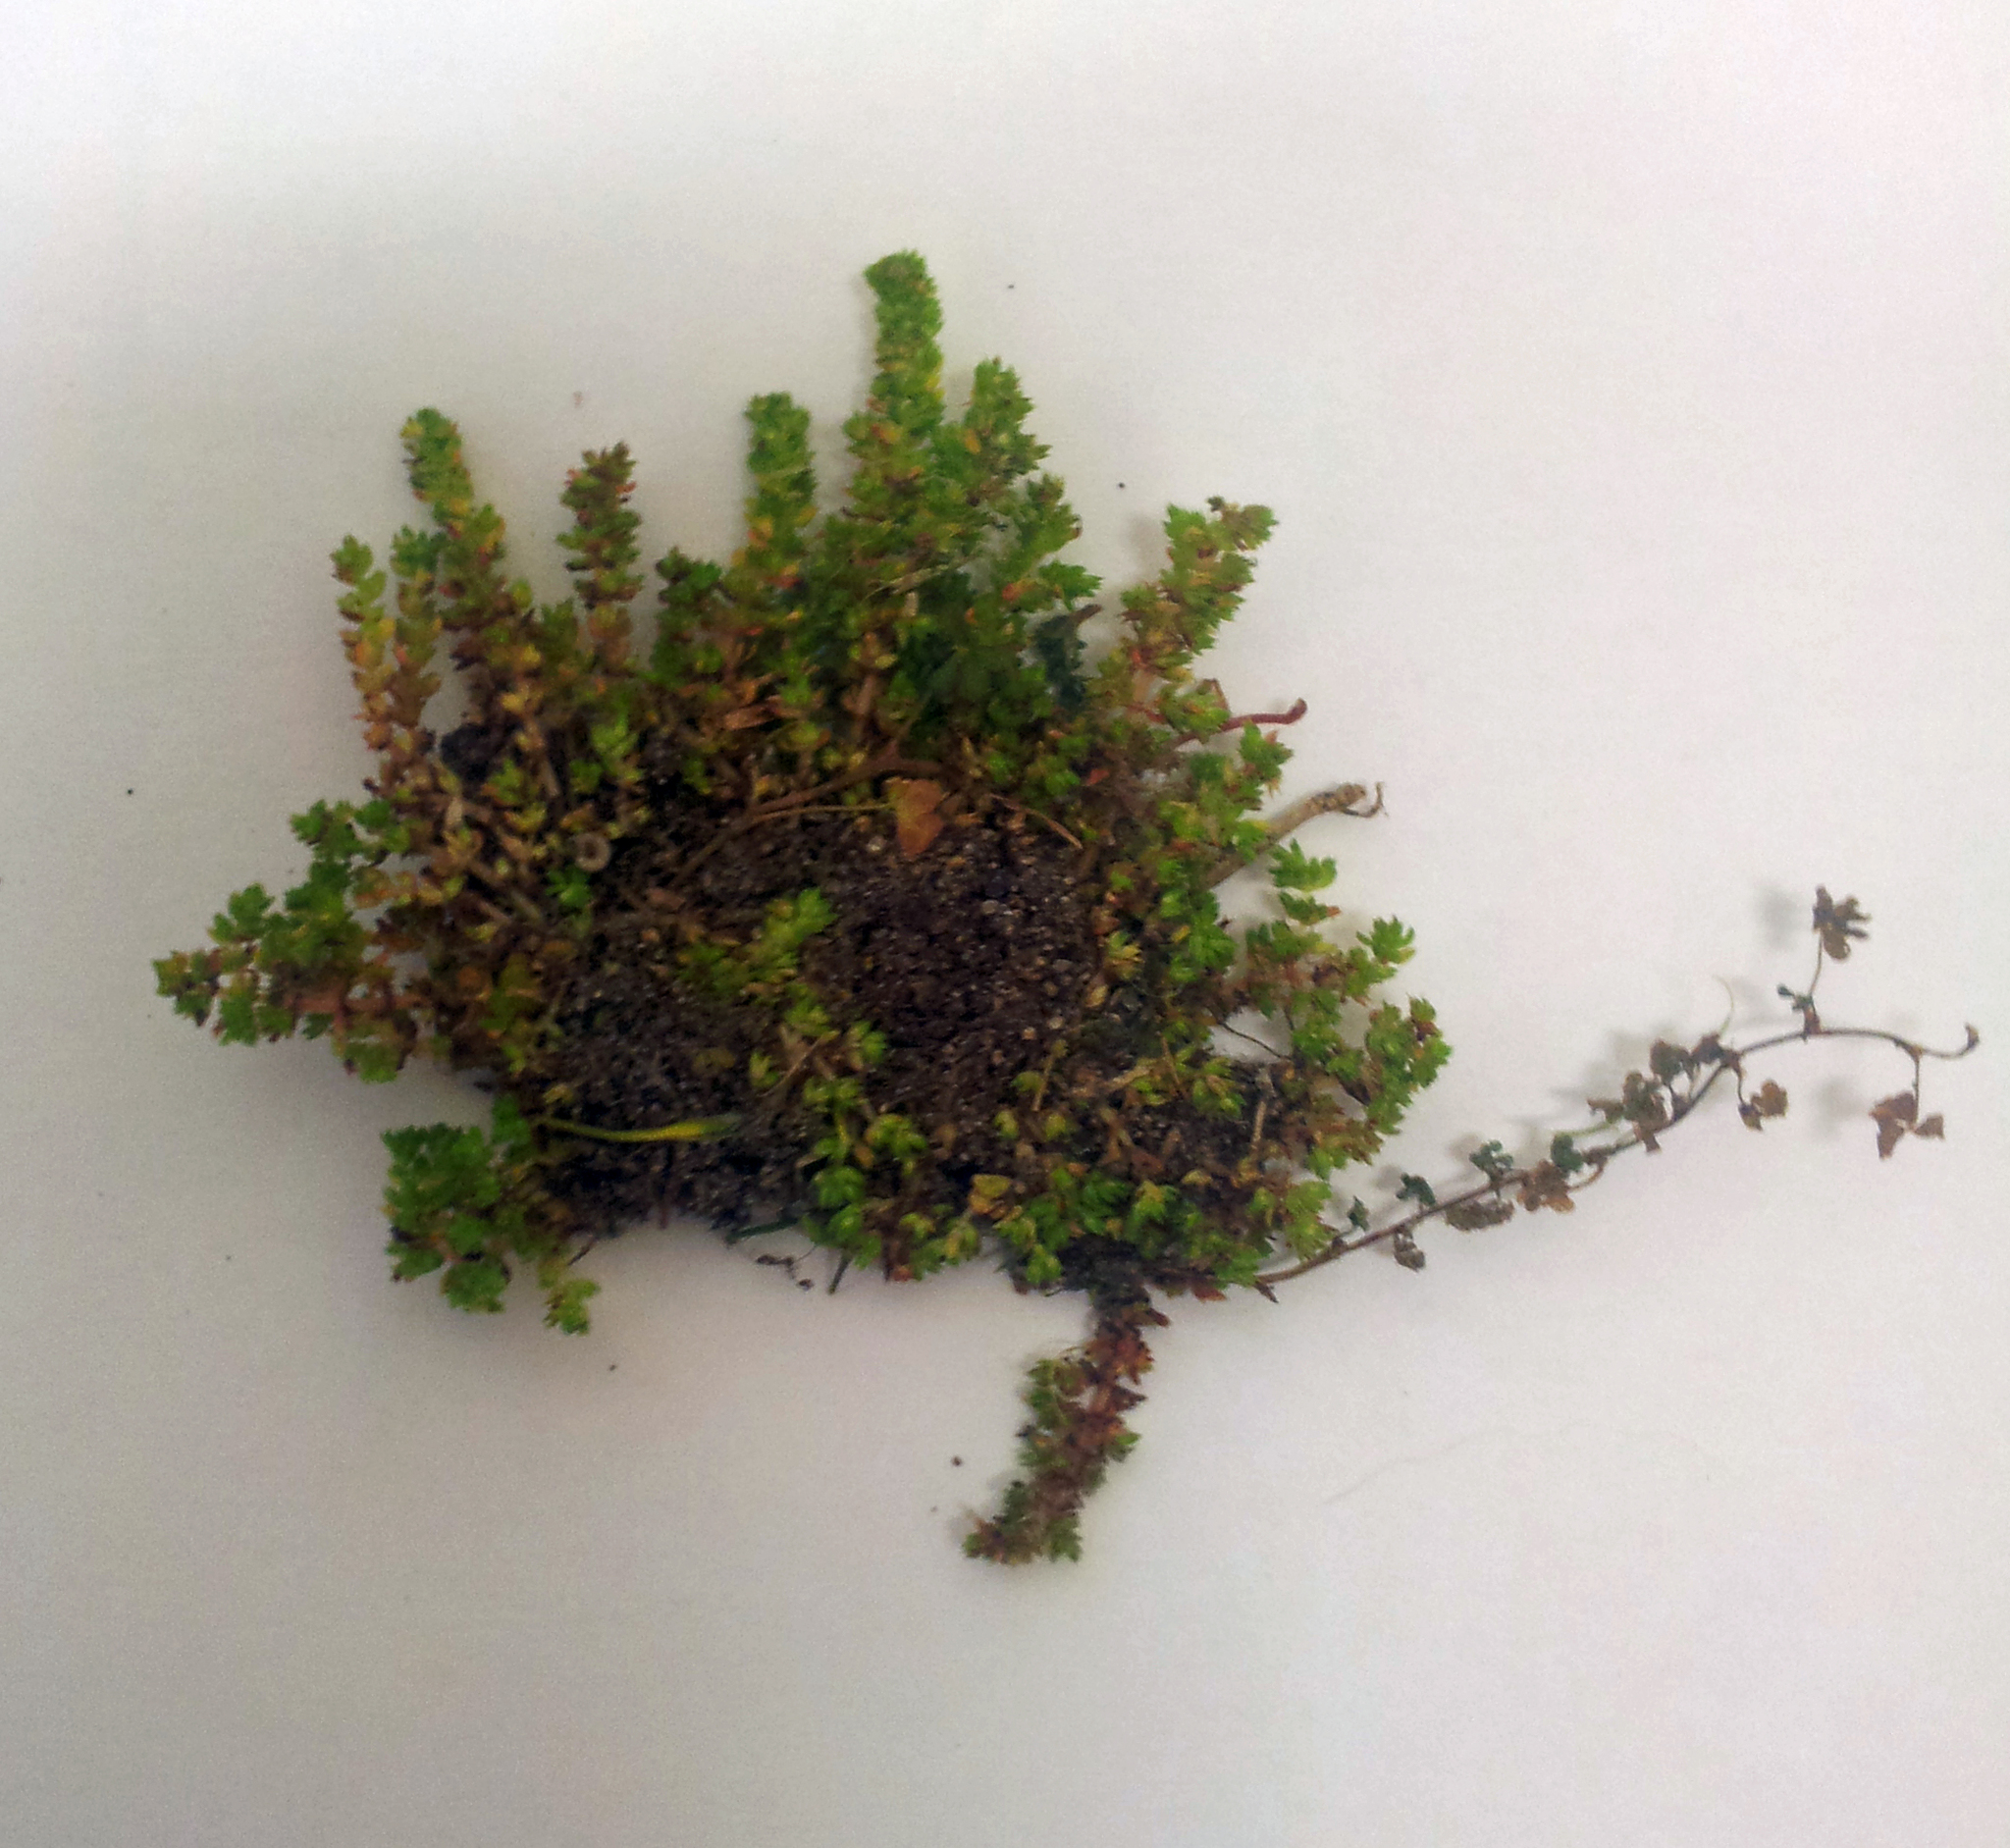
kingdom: Plantae
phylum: Tracheophyta
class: Magnoliopsida
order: Saxifragales
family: Crassulaceae
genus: Crassula
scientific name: Crassula alata
